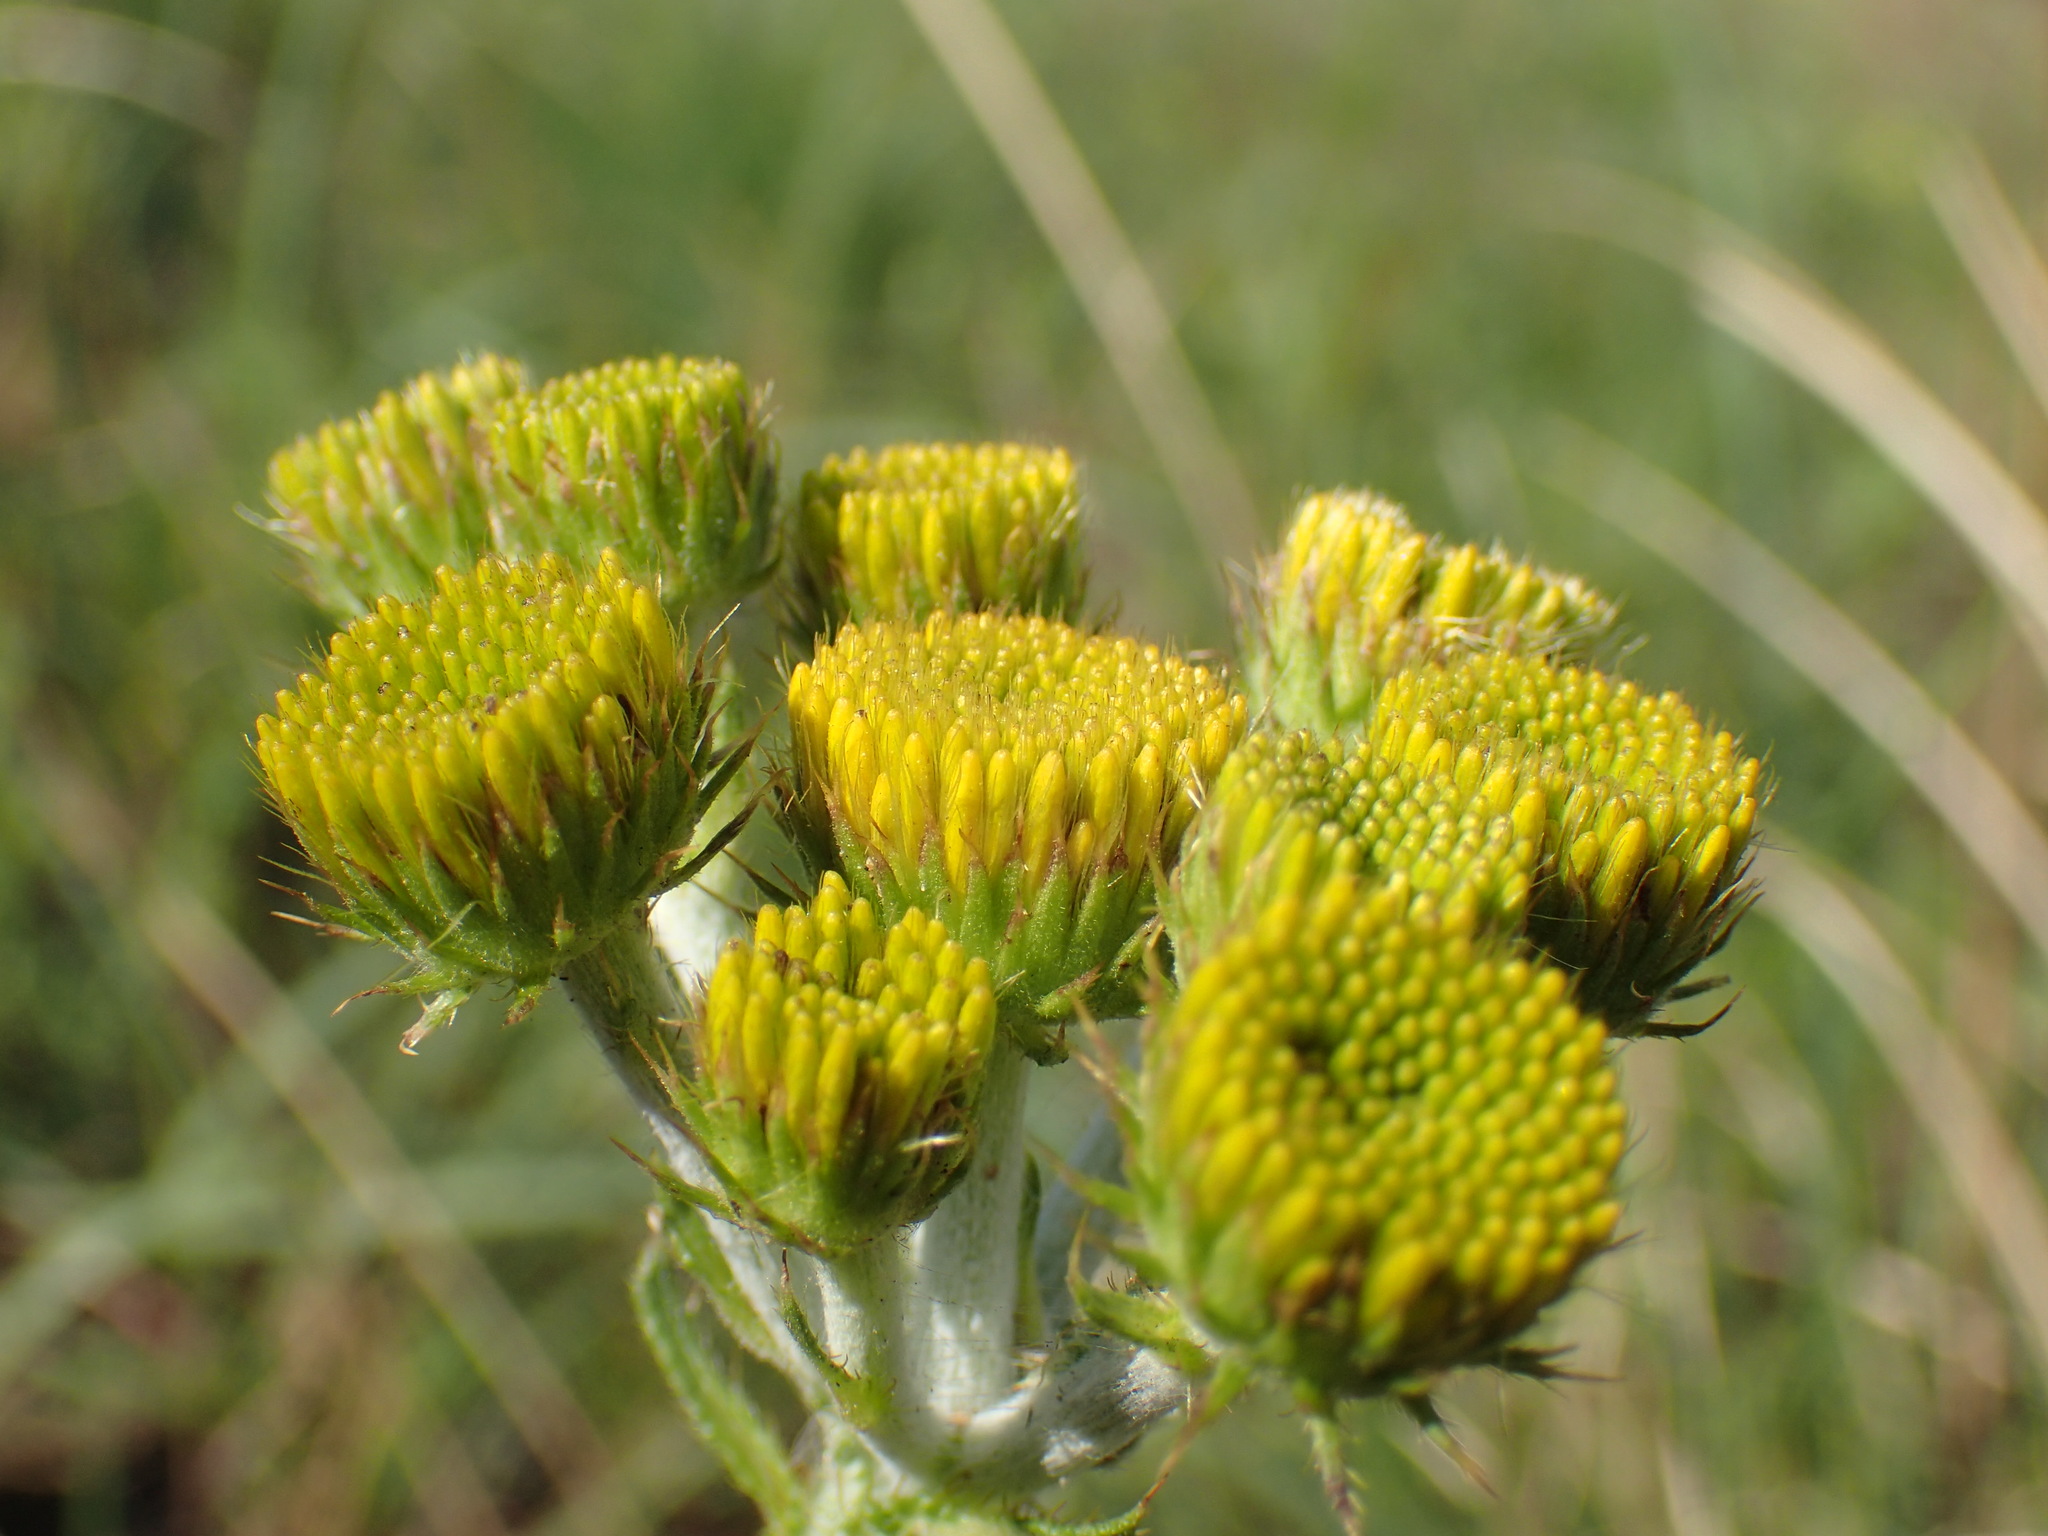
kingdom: Plantae
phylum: Tracheophyta
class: Magnoliopsida
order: Asterales
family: Asteraceae
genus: Berkheya
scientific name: Berkheya umbellata
